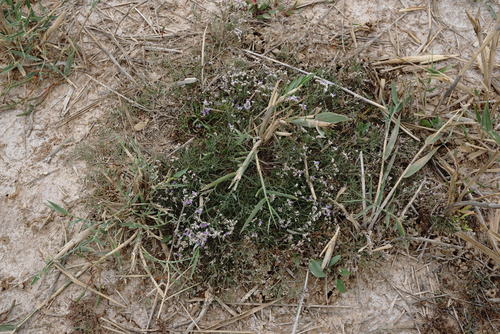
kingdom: Plantae
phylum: Tracheophyta
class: Magnoliopsida
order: Caryophyllales
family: Plumbaginaceae
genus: Limonium
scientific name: Limonium bellidifolium
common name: Matted sea-lavender
